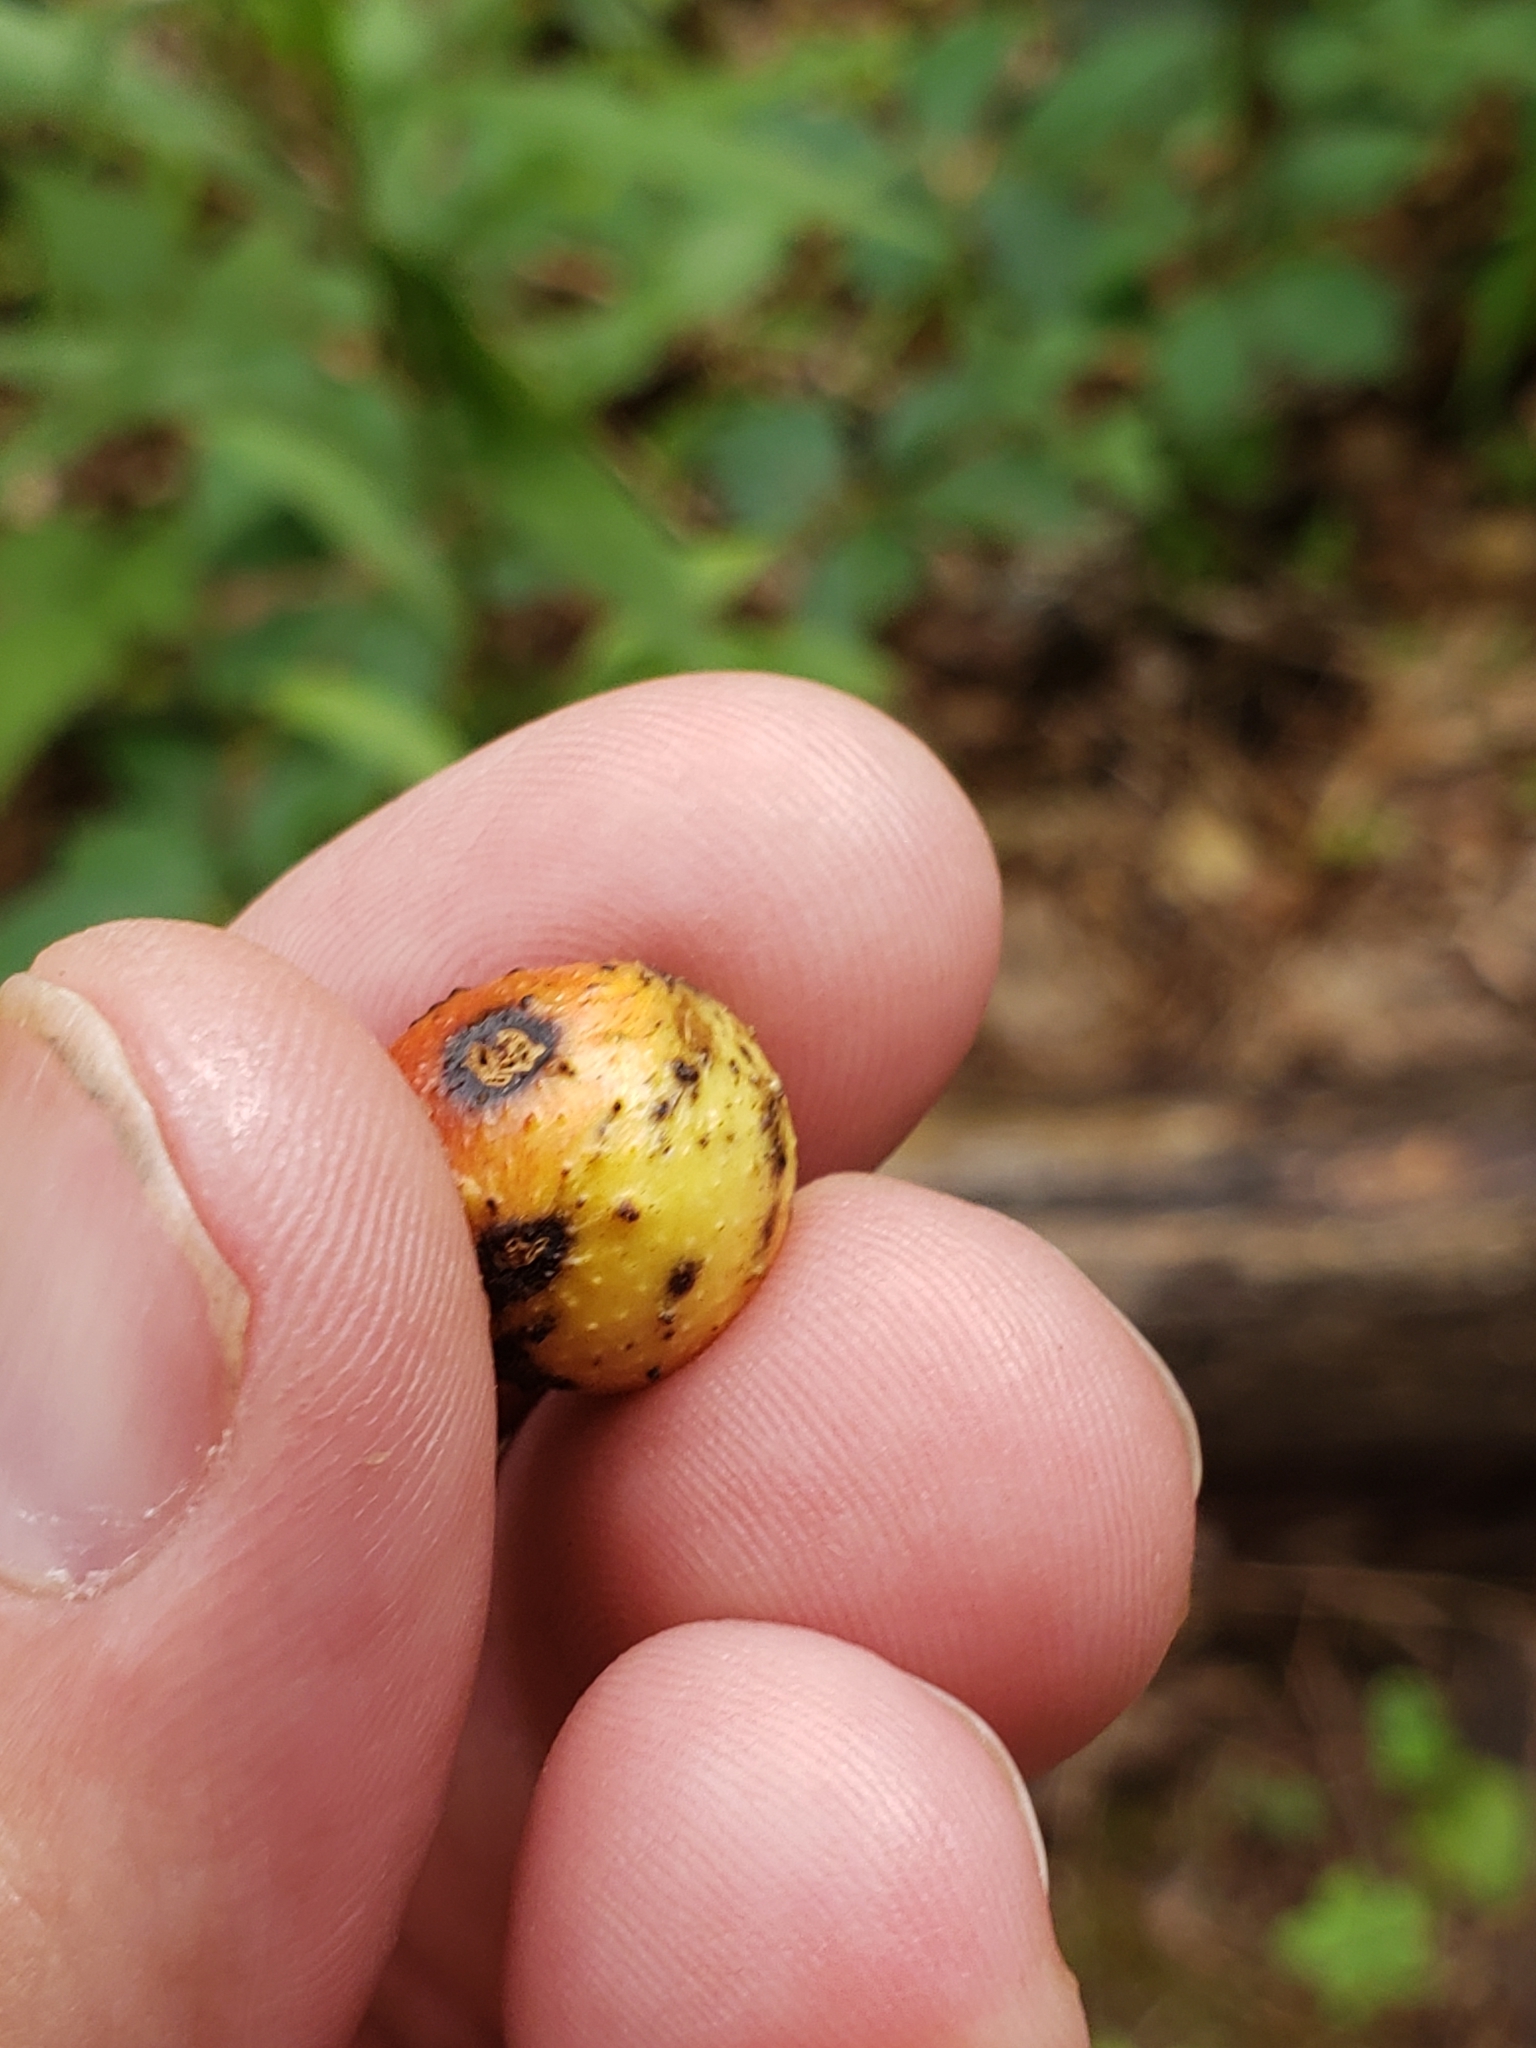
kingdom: Animalia
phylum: Arthropoda
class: Insecta
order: Hymenoptera
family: Cynipidae
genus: Disholcaspis
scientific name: Disholcaspis quercusglobulus
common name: Round bullet gall wasp
